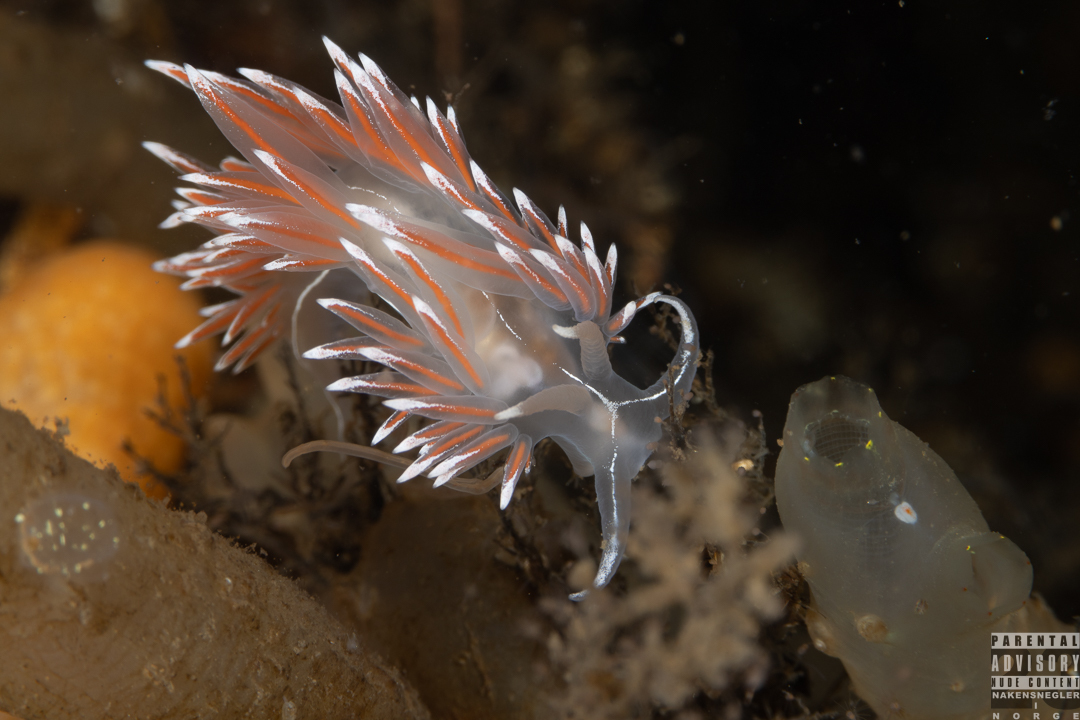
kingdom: Animalia
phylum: Mollusca
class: Gastropoda
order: Nudibranchia
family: Coryphellidae
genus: Coryphella
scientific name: Coryphella lineata
